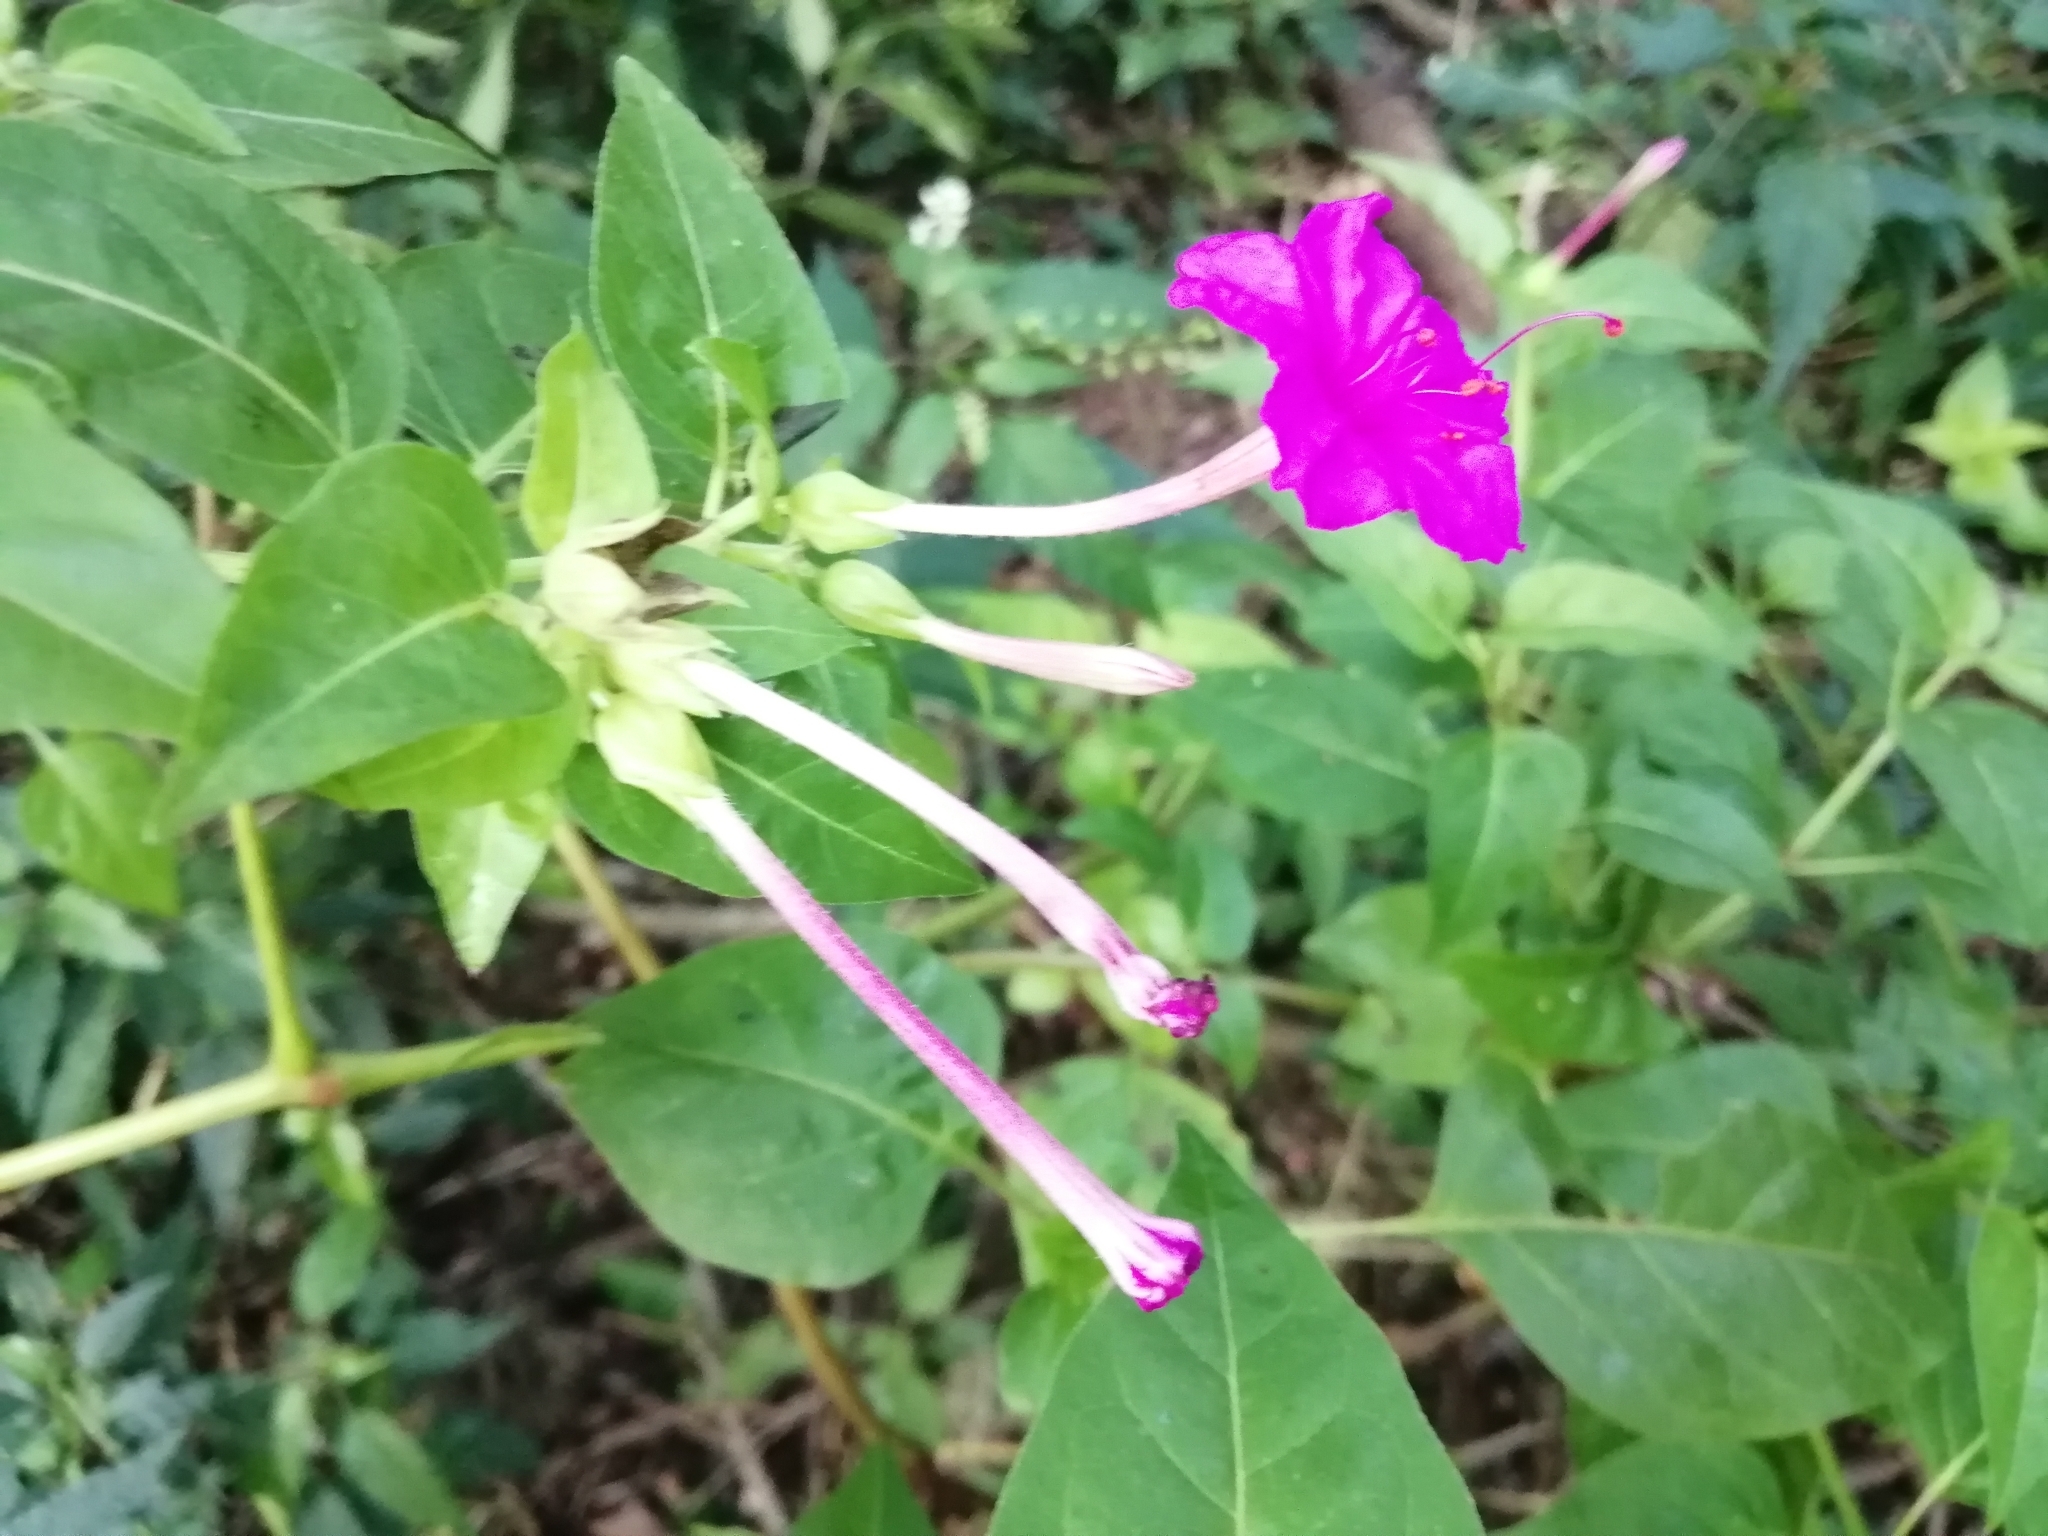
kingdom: Plantae
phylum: Tracheophyta
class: Magnoliopsida
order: Caryophyllales
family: Nyctaginaceae
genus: Mirabilis
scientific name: Mirabilis jalapa
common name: Marvel-of-peru
